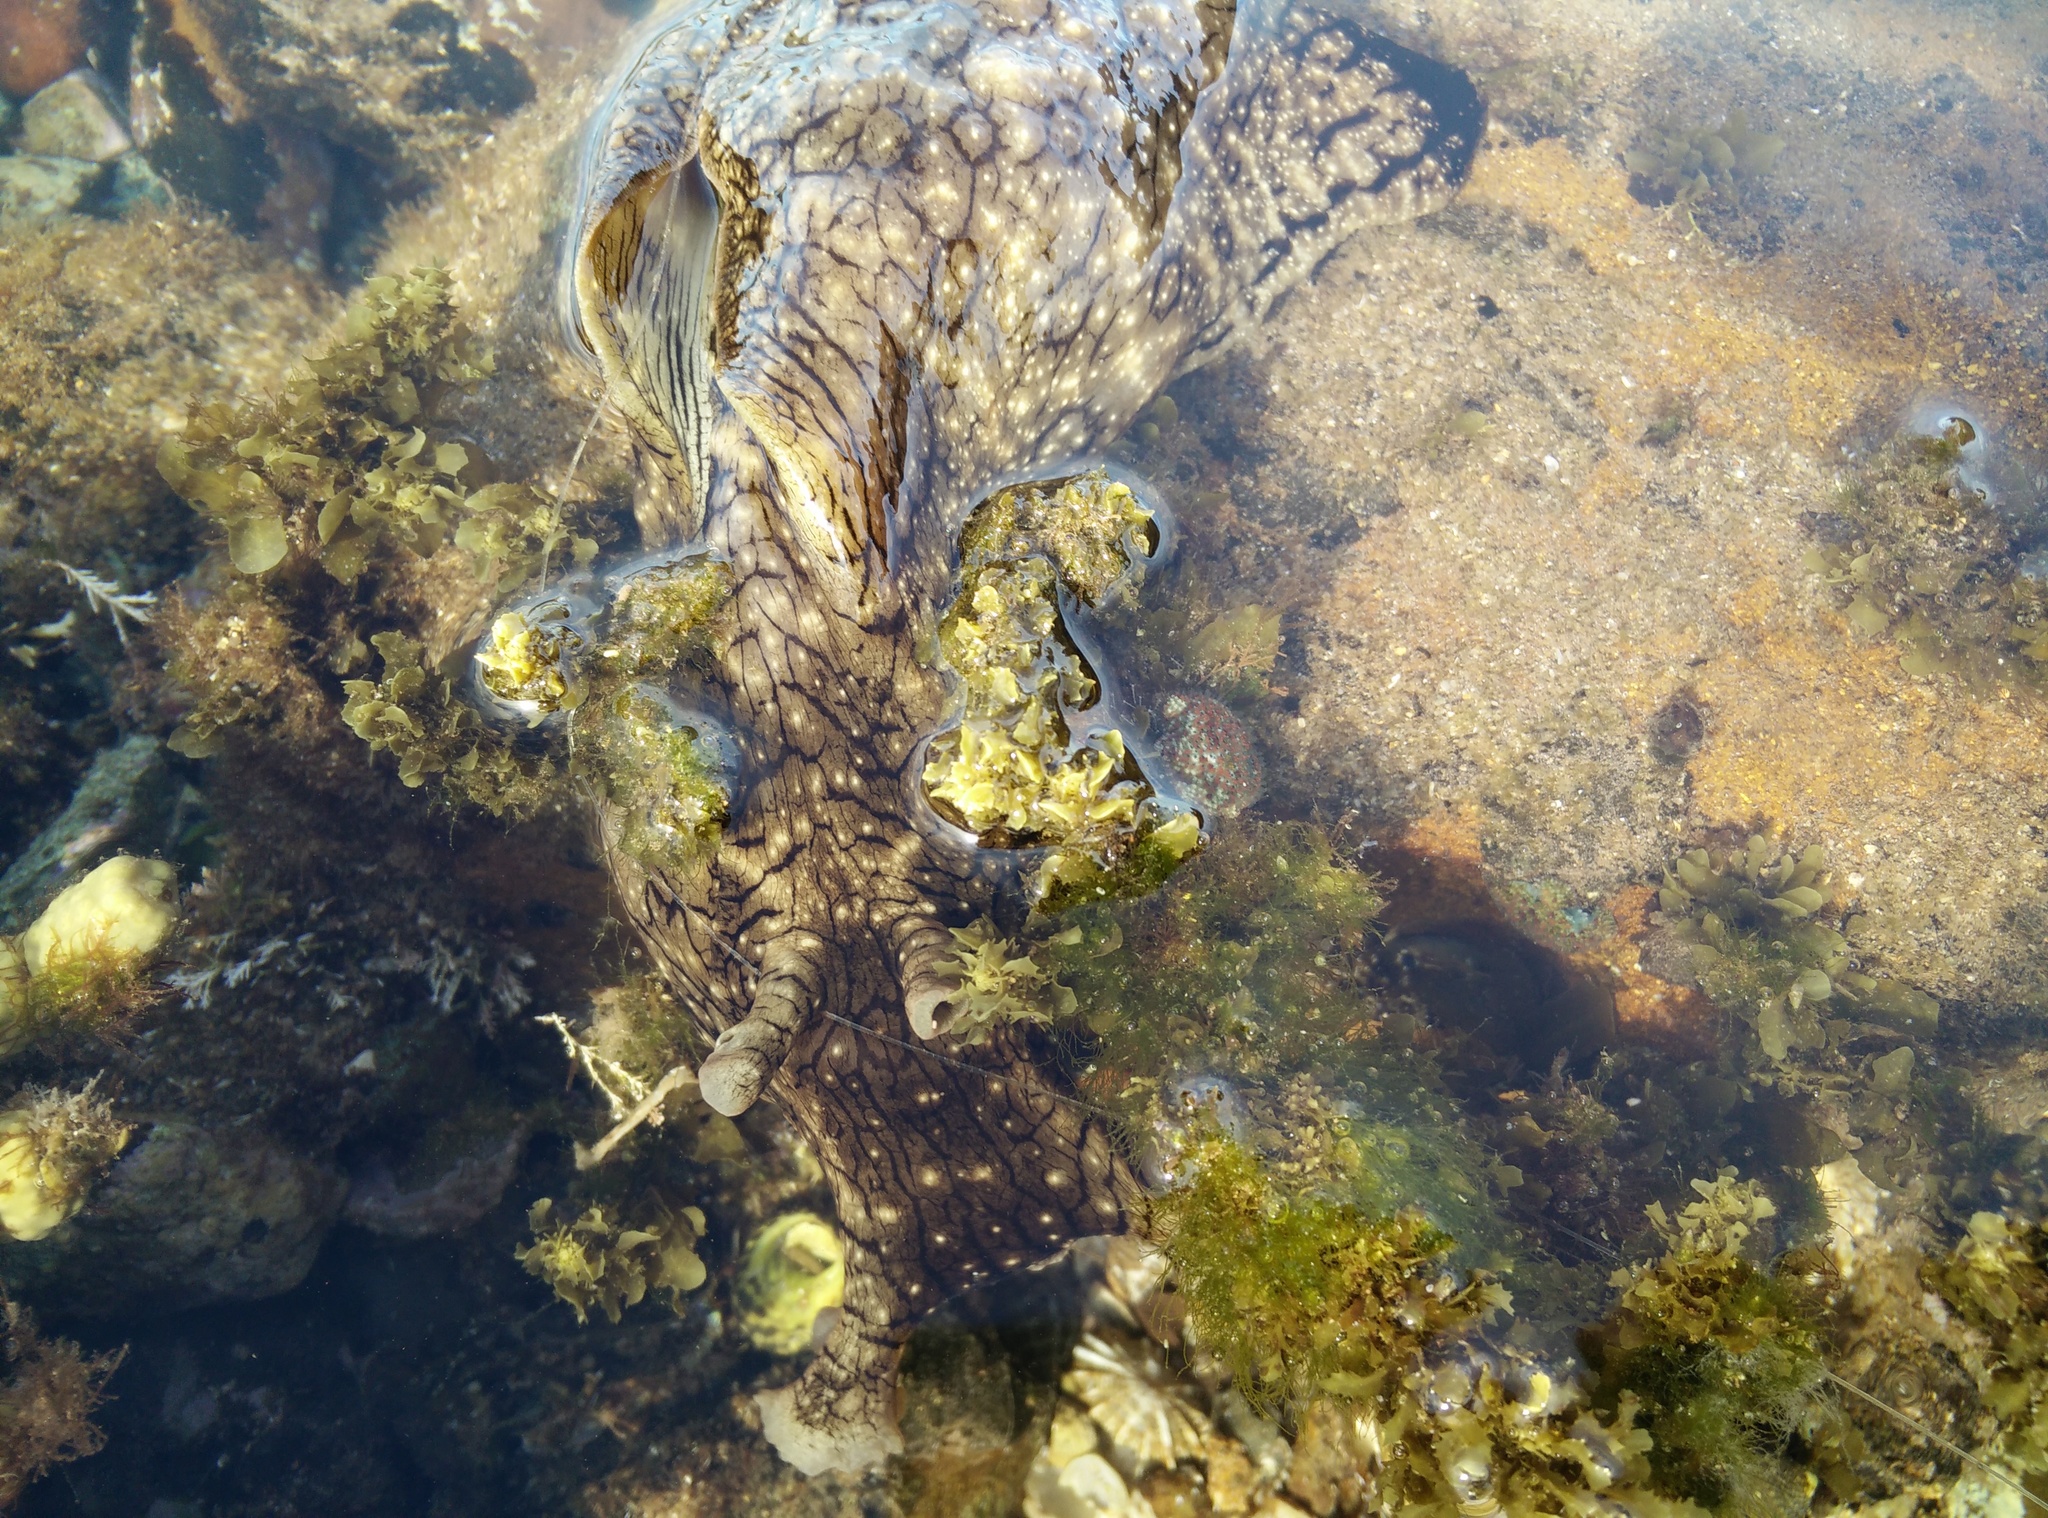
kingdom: Animalia
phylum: Mollusca
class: Gastropoda
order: Aplysiida
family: Aplysiidae
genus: Aplysia
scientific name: Aplysia argus
